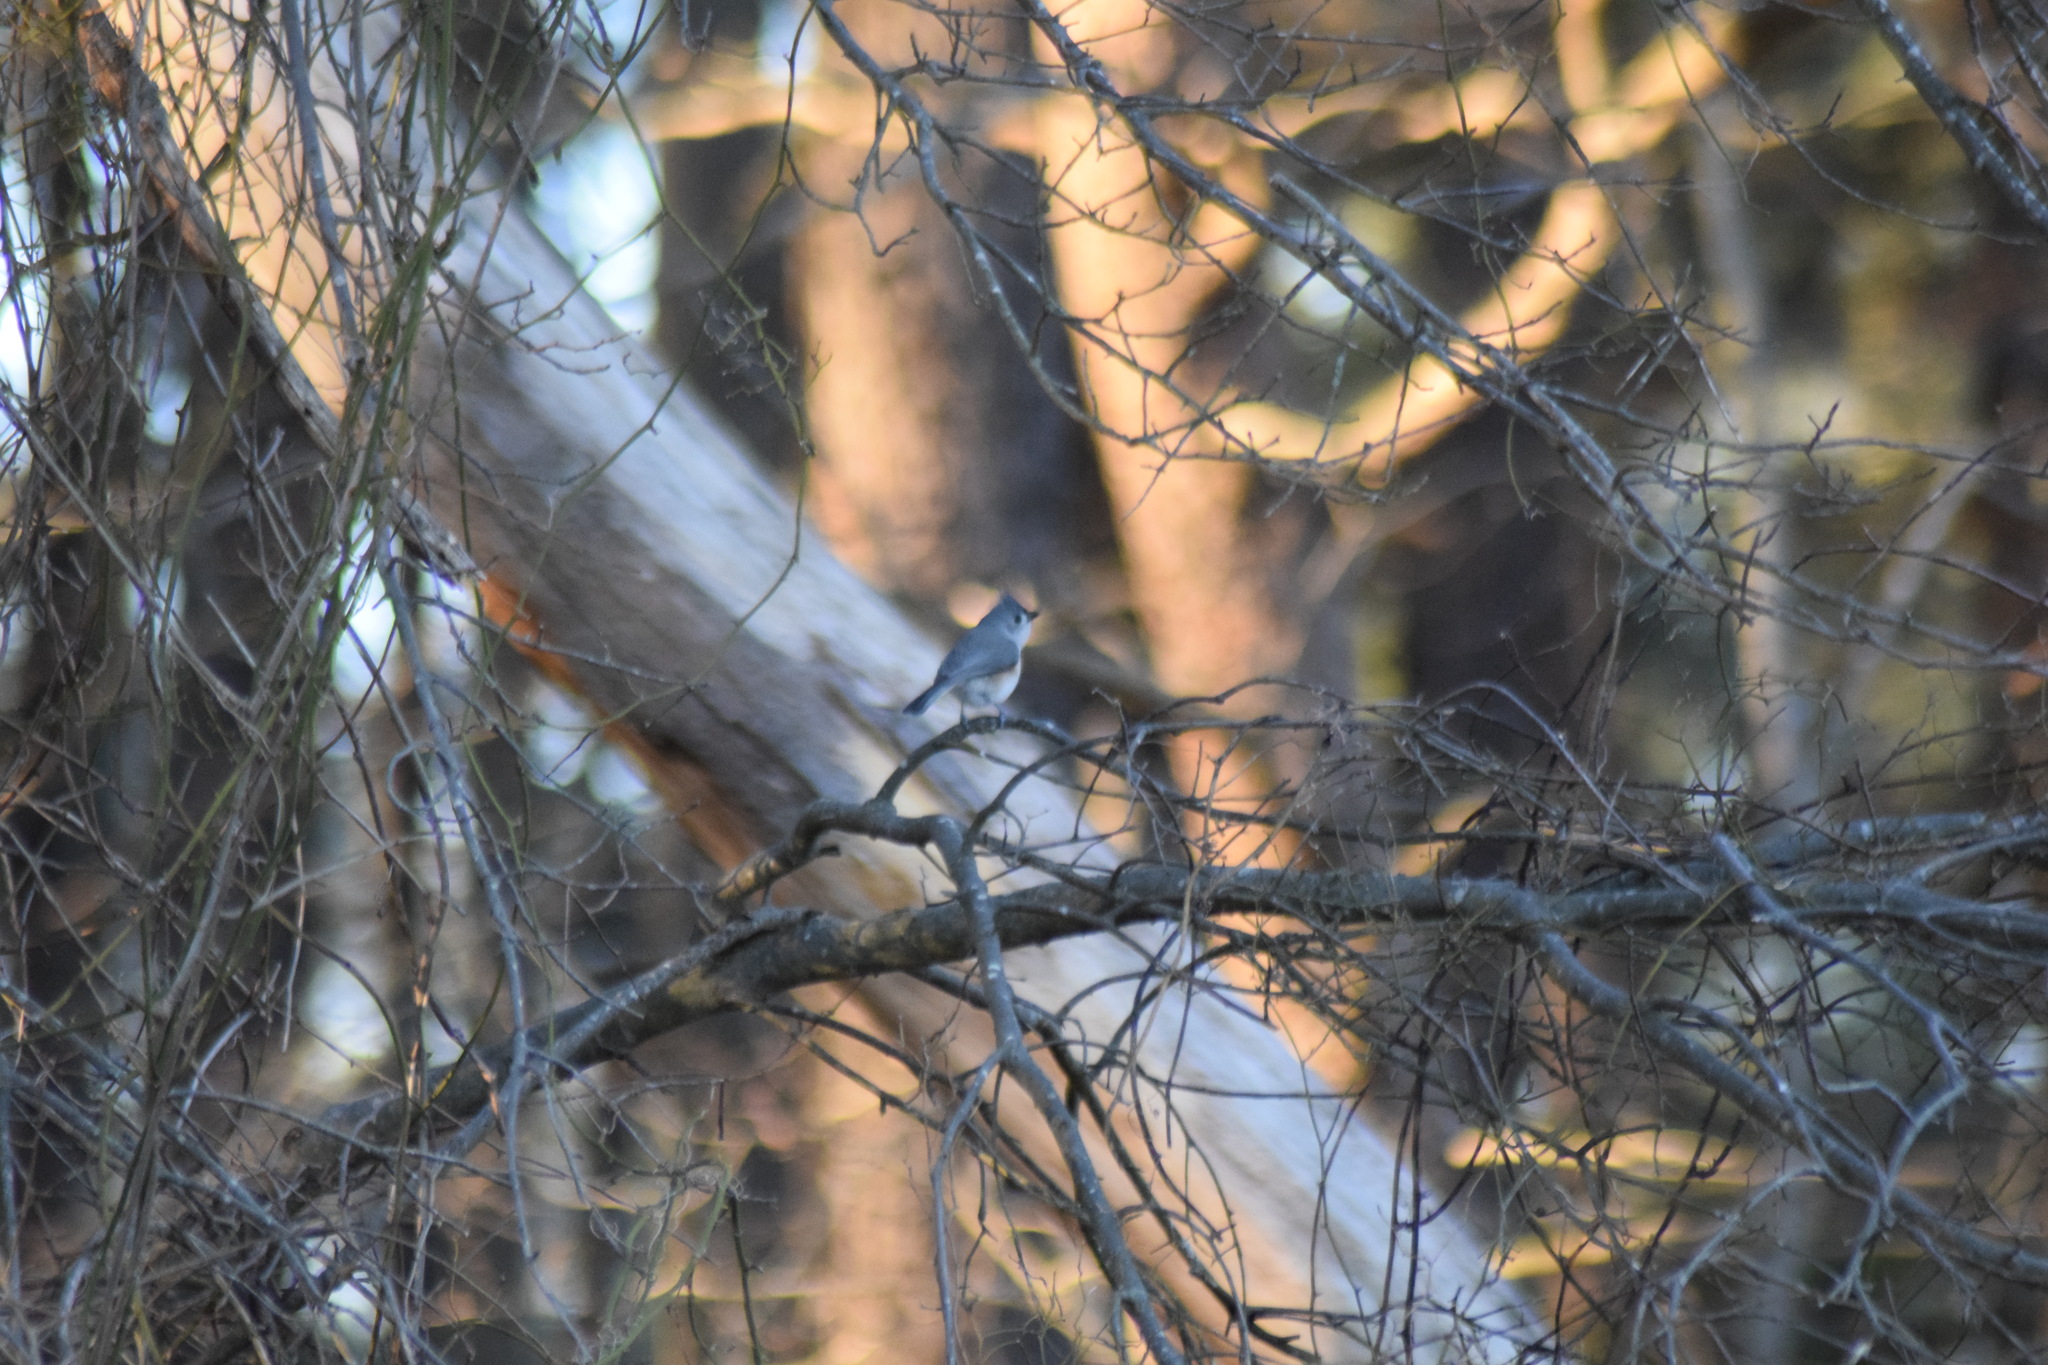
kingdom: Animalia
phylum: Chordata
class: Aves
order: Passeriformes
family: Paridae
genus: Baeolophus
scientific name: Baeolophus bicolor
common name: Tufted titmouse
